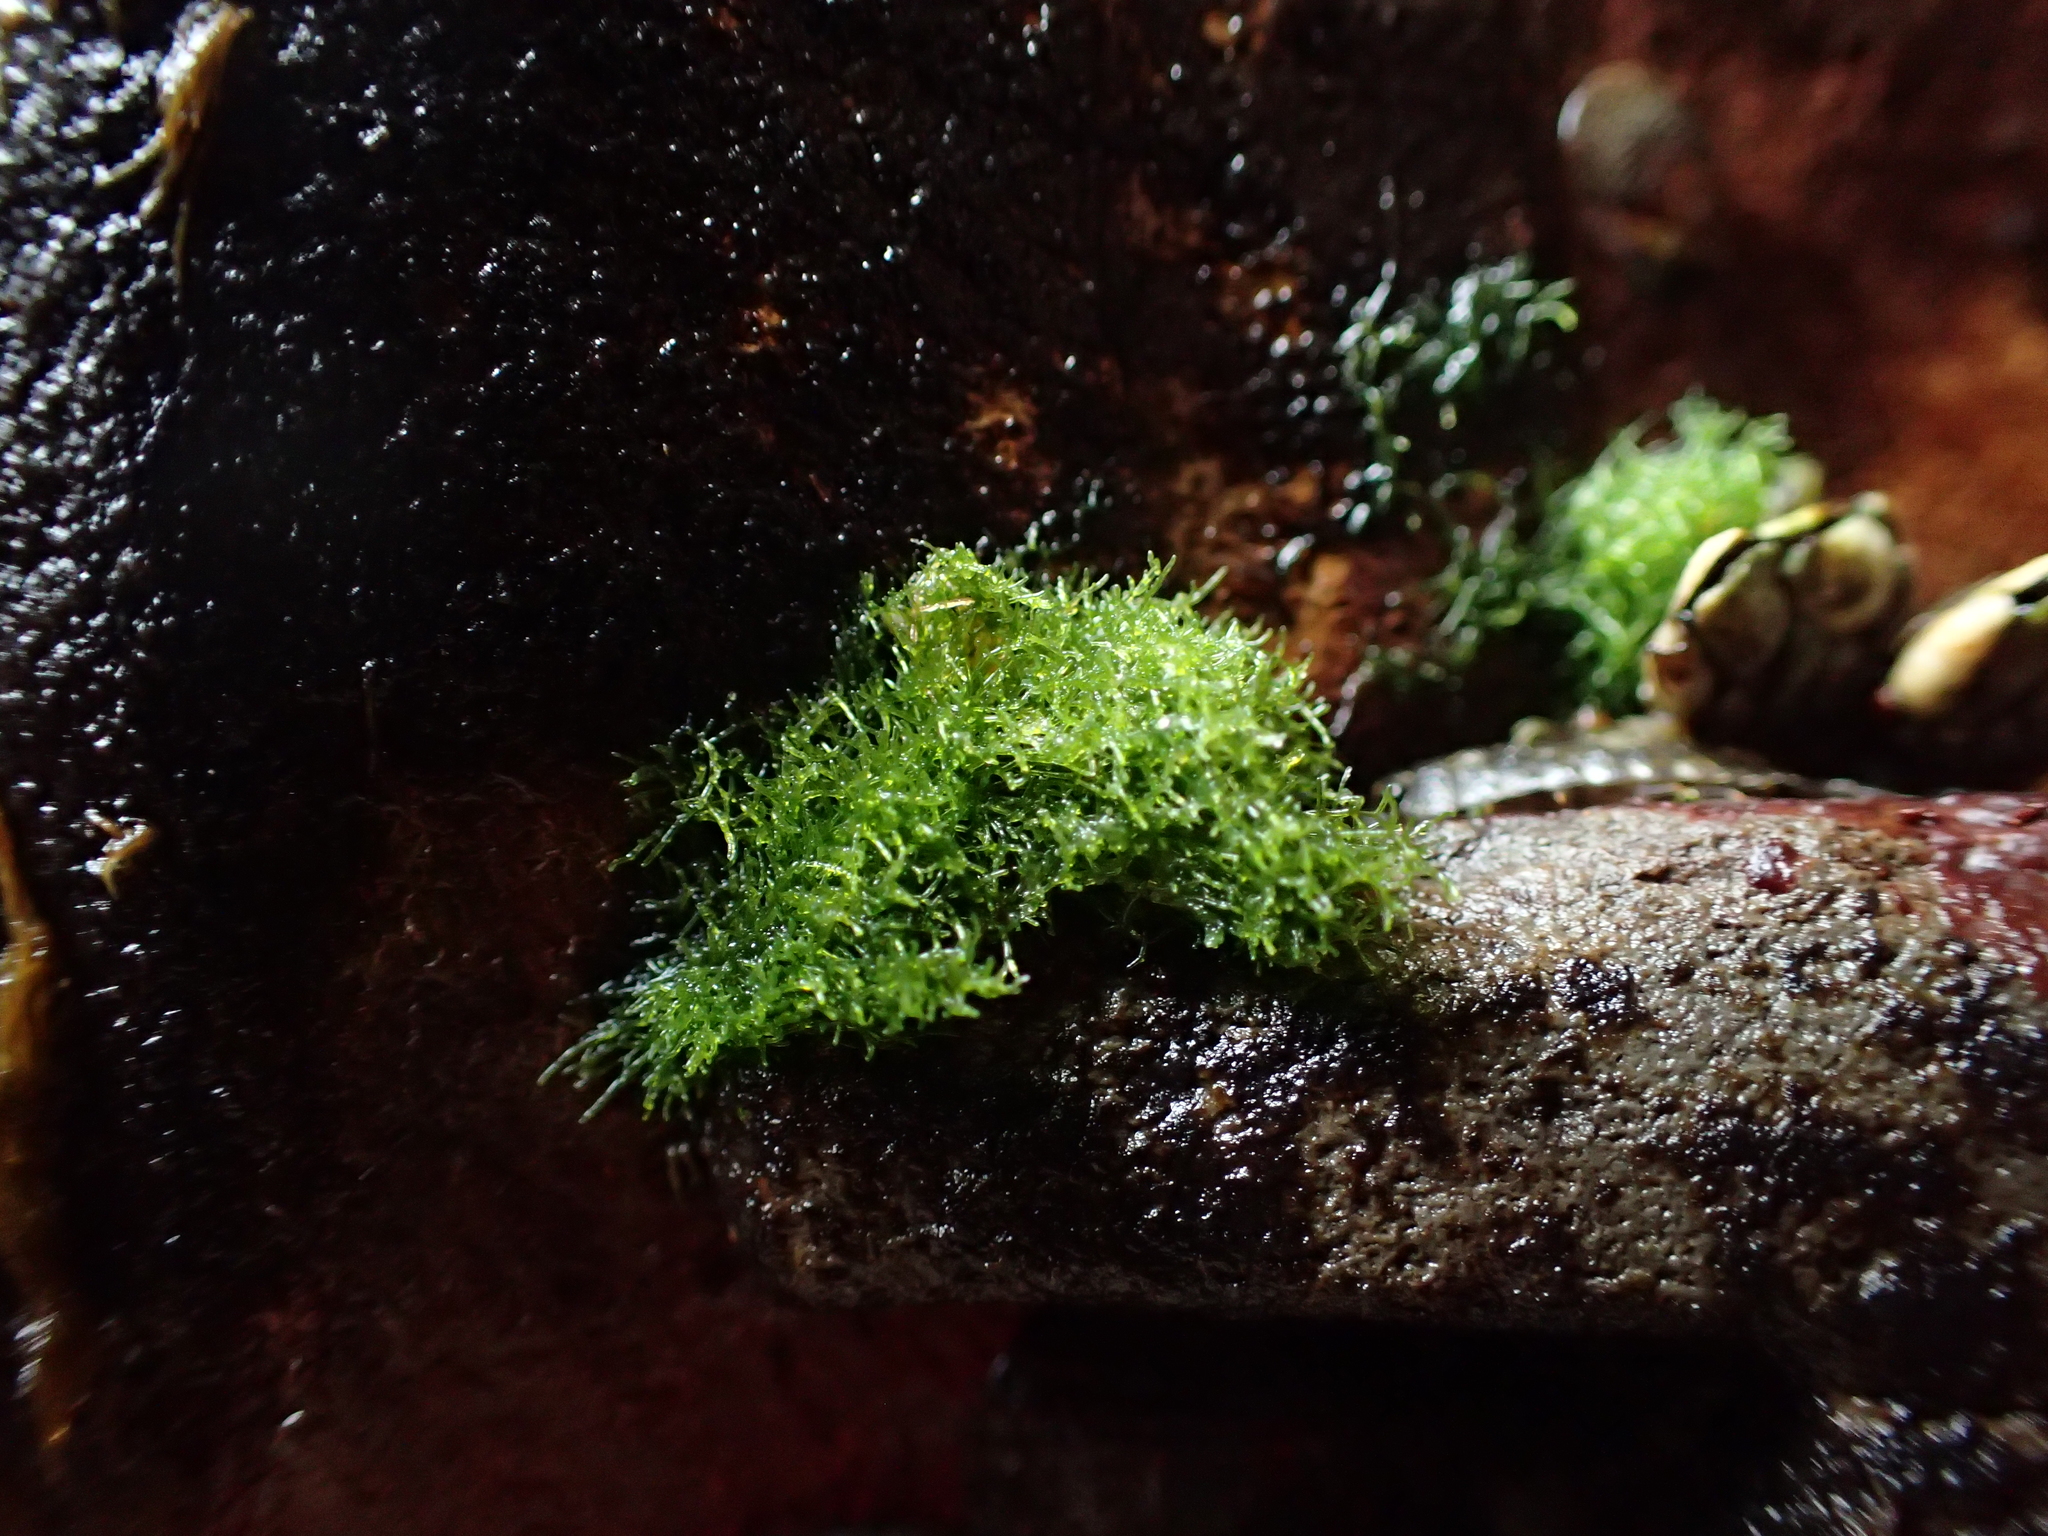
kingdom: Plantae
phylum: Chlorophyta
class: Ulvophyceae
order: Cladophorales
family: Cladophoraceae
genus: Cladophora
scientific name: Cladophora columbiana
